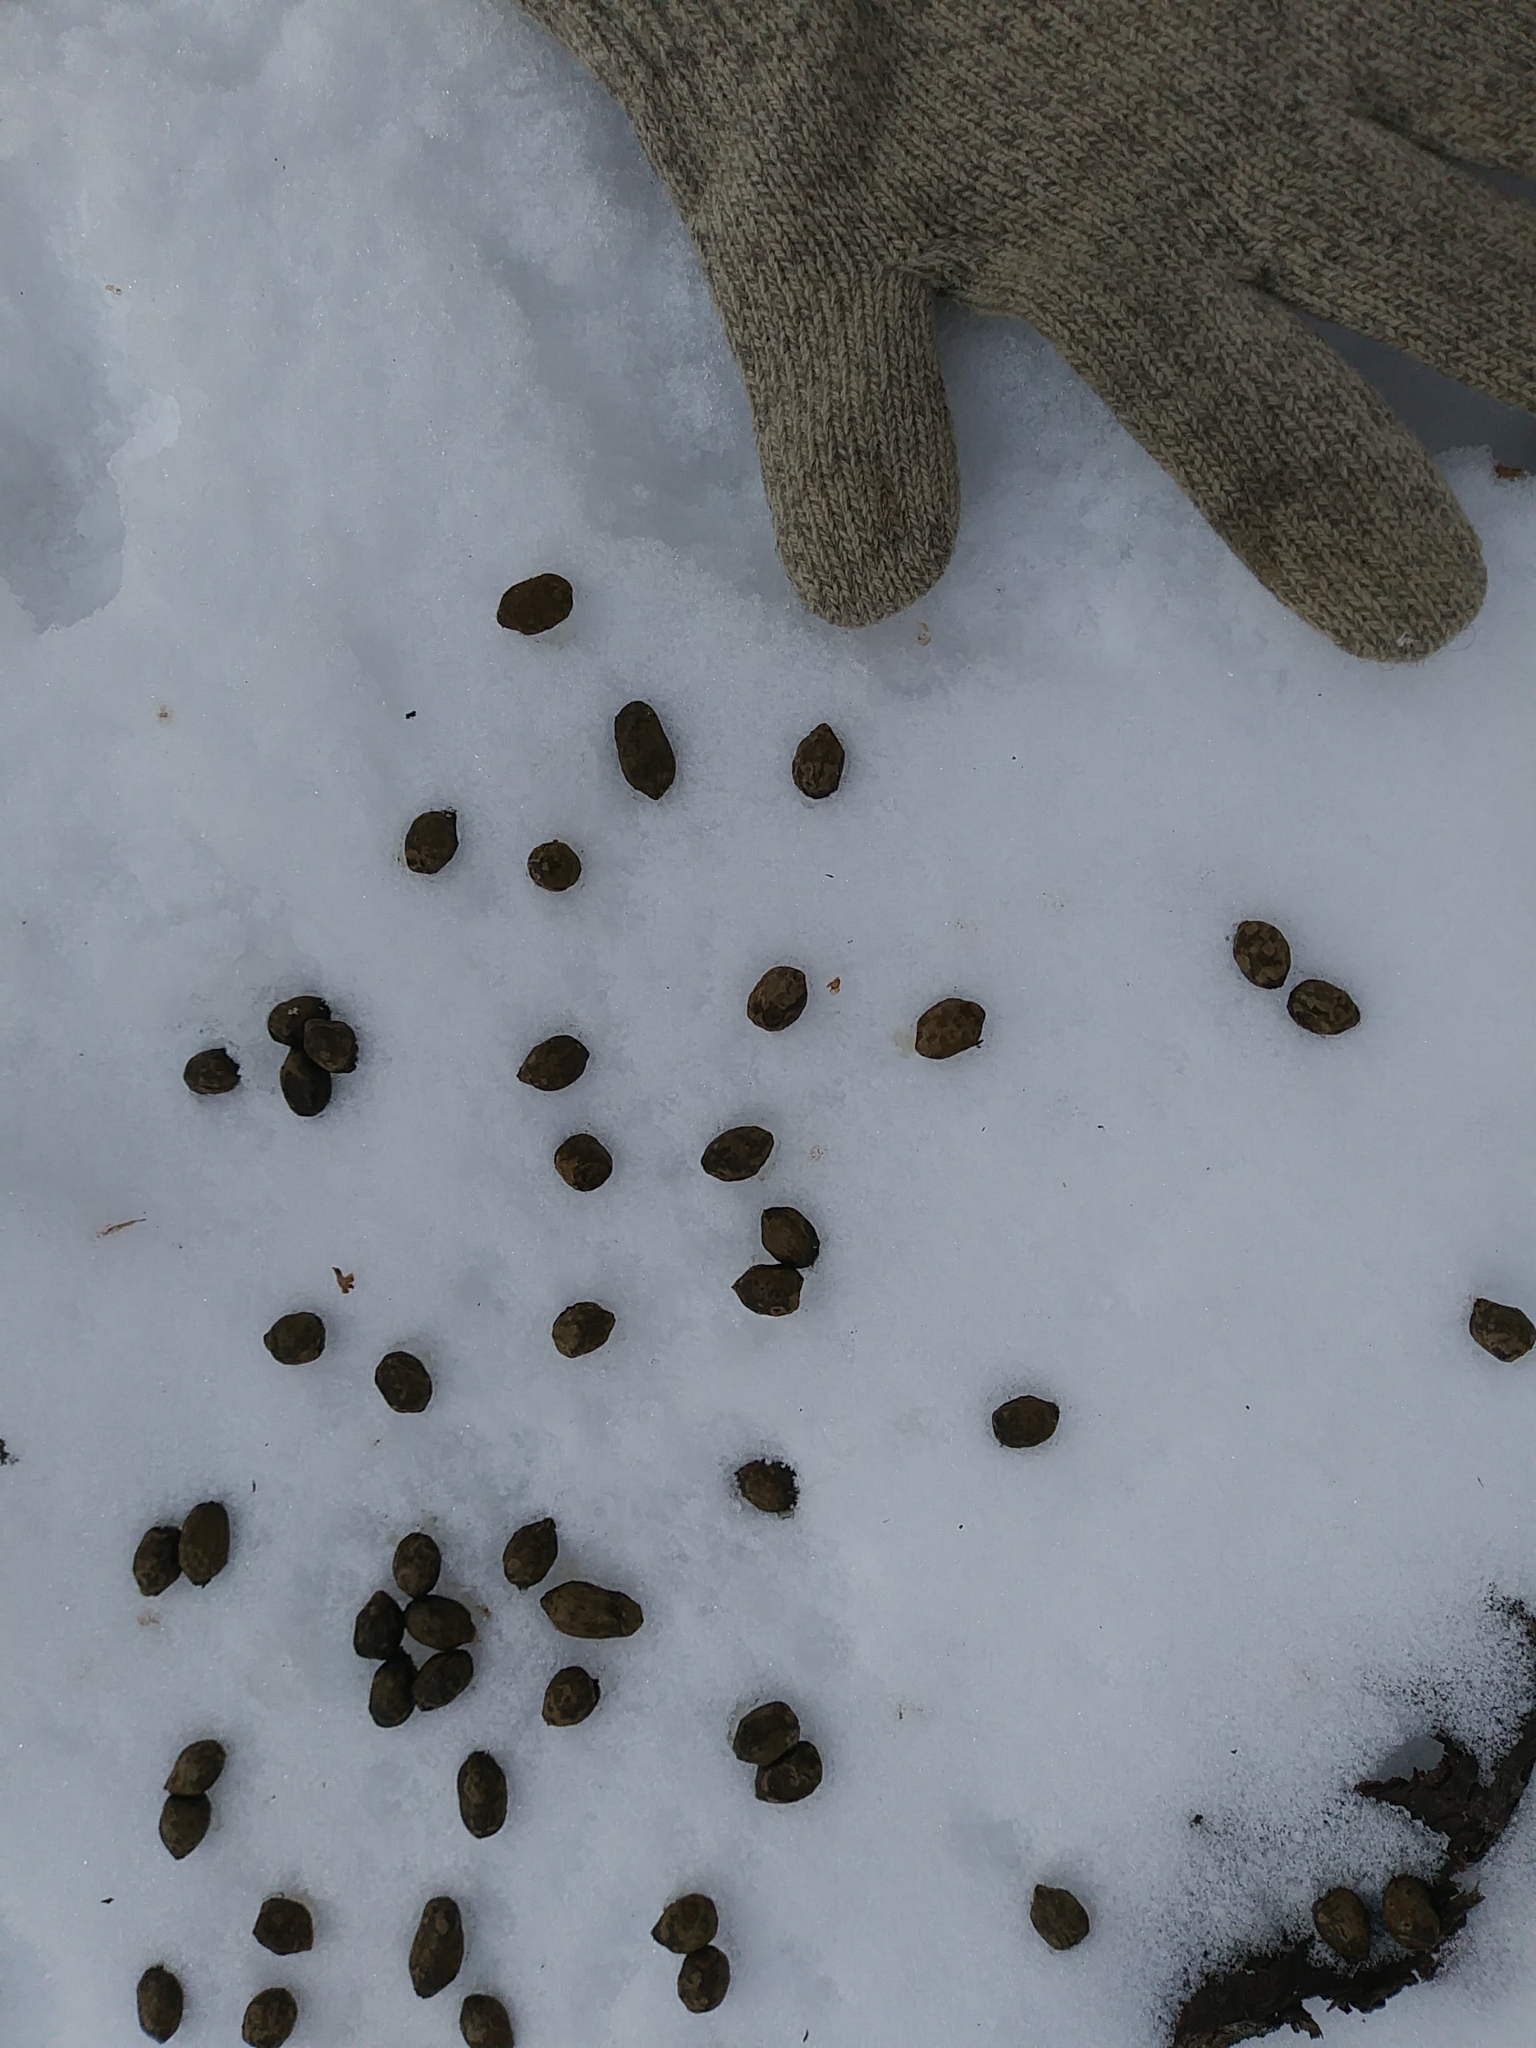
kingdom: Animalia
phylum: Chordata
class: Mammalia
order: Artiodactyla
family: Cervidae
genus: Odocoileus
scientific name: Odocoileus virginianus
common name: White-tailed deer
